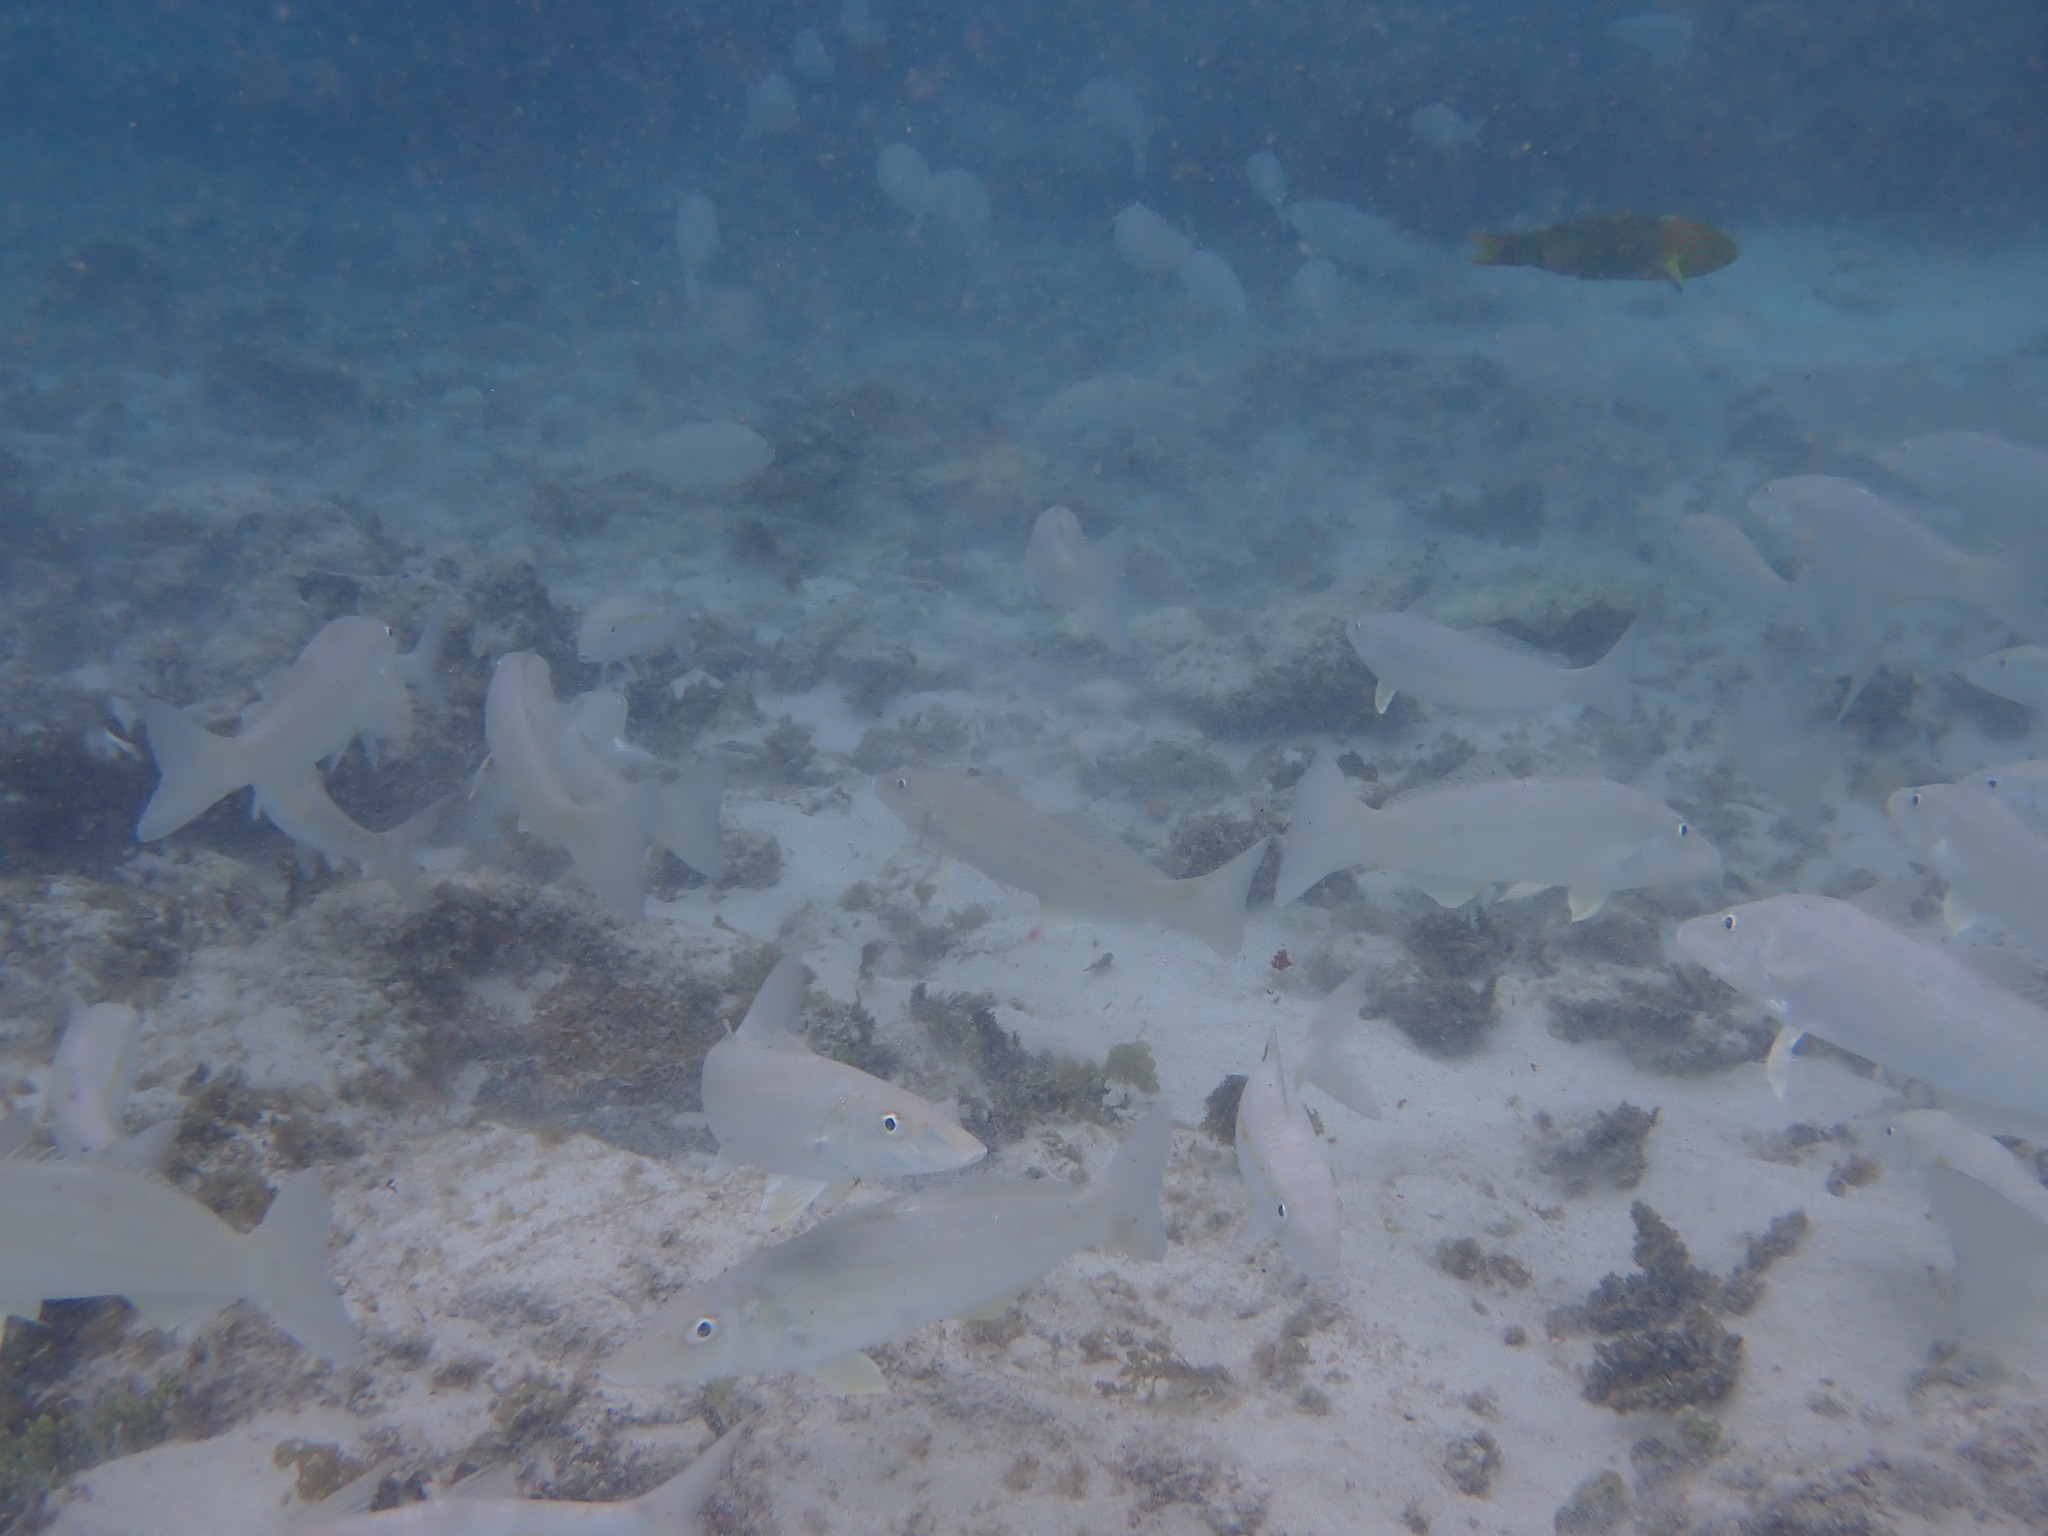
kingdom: Animalia
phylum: Chordata
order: Perciformes
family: Sillaginidae
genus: Sillago
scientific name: Sillago ciliata
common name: Sand sillago
